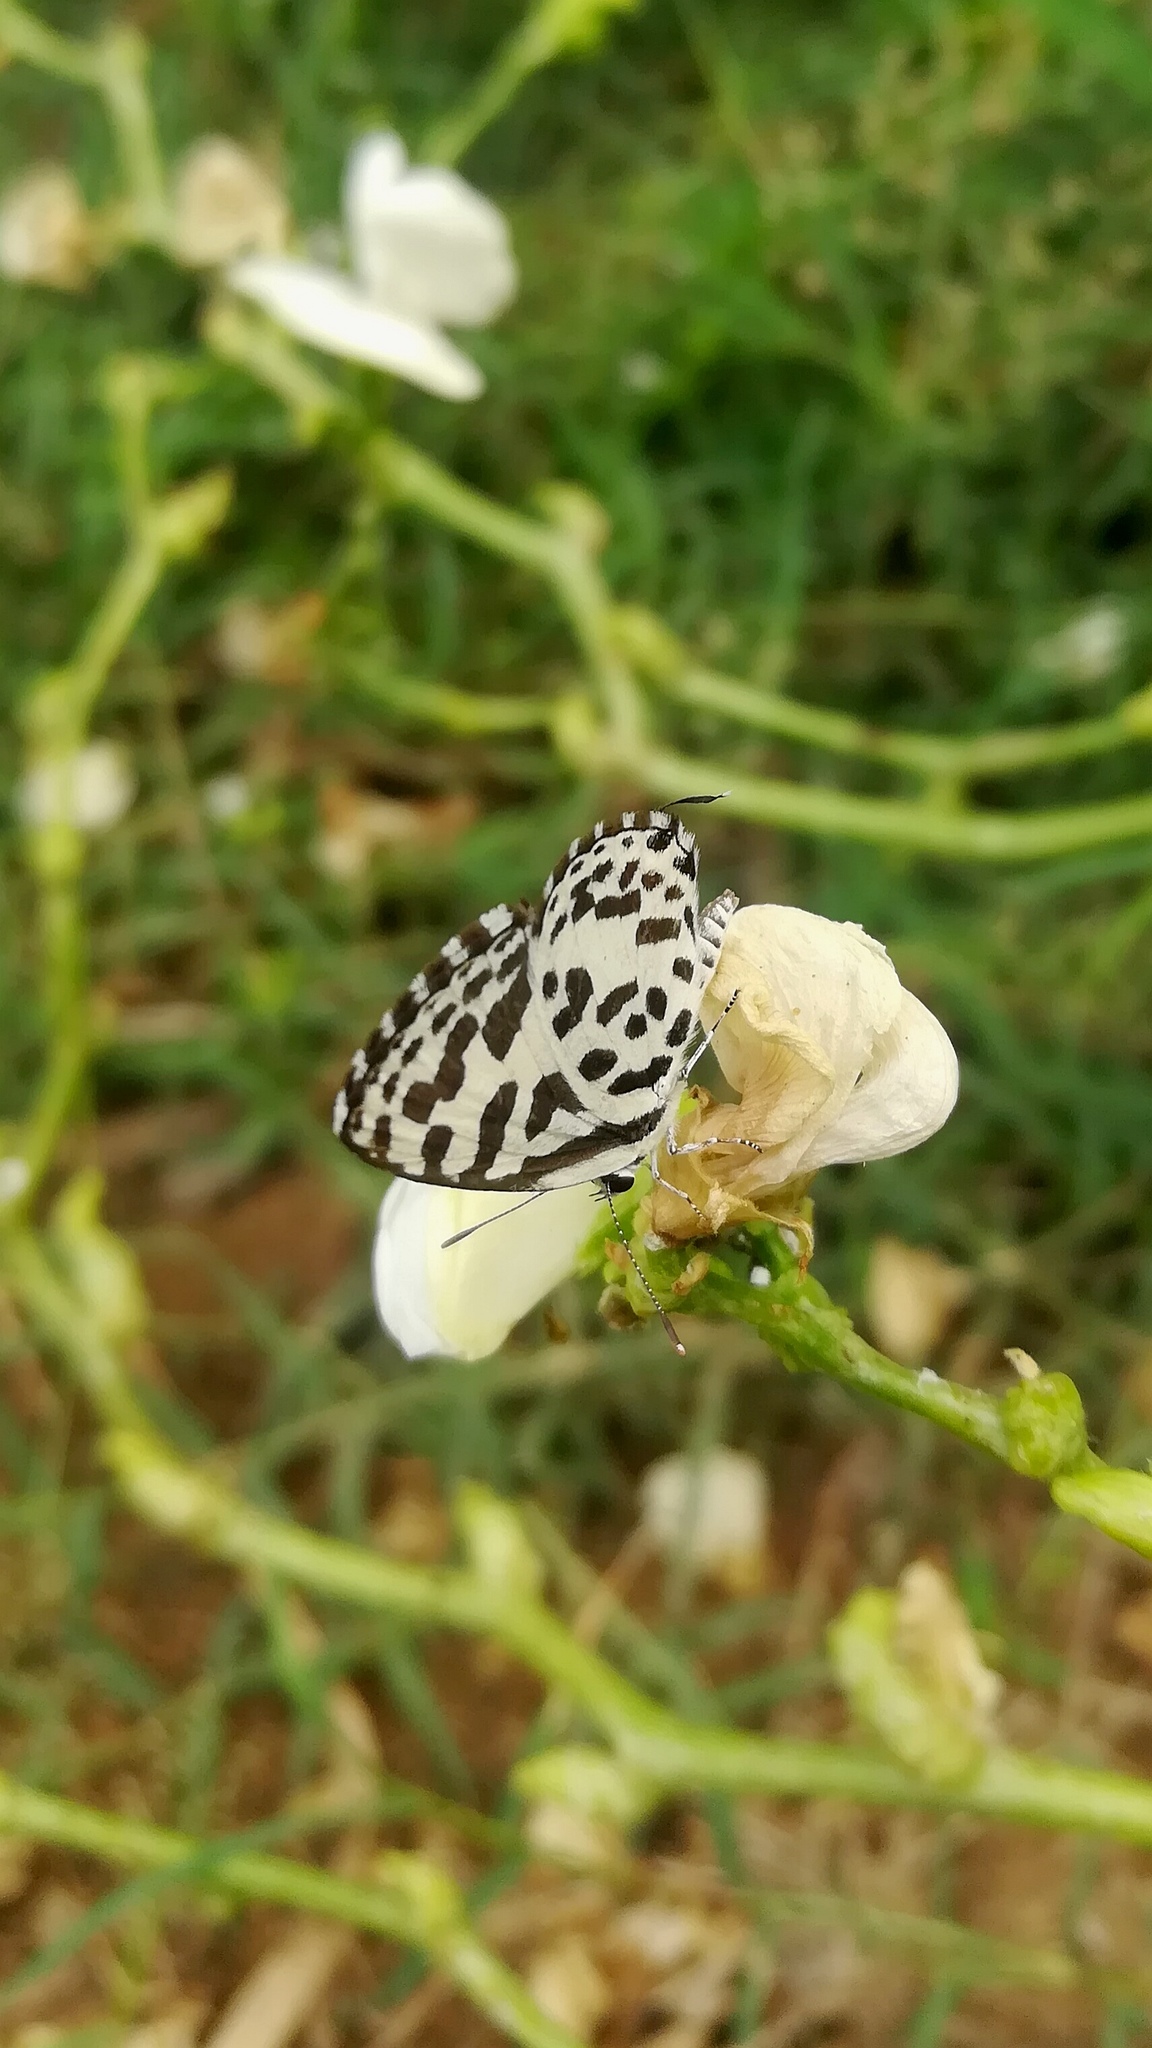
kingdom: Animalia
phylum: Arthropoda
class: Insecta
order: Lepidoptera
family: Lycaenidae
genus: Castalius
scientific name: Castalius rosimon
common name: Common pierrot
